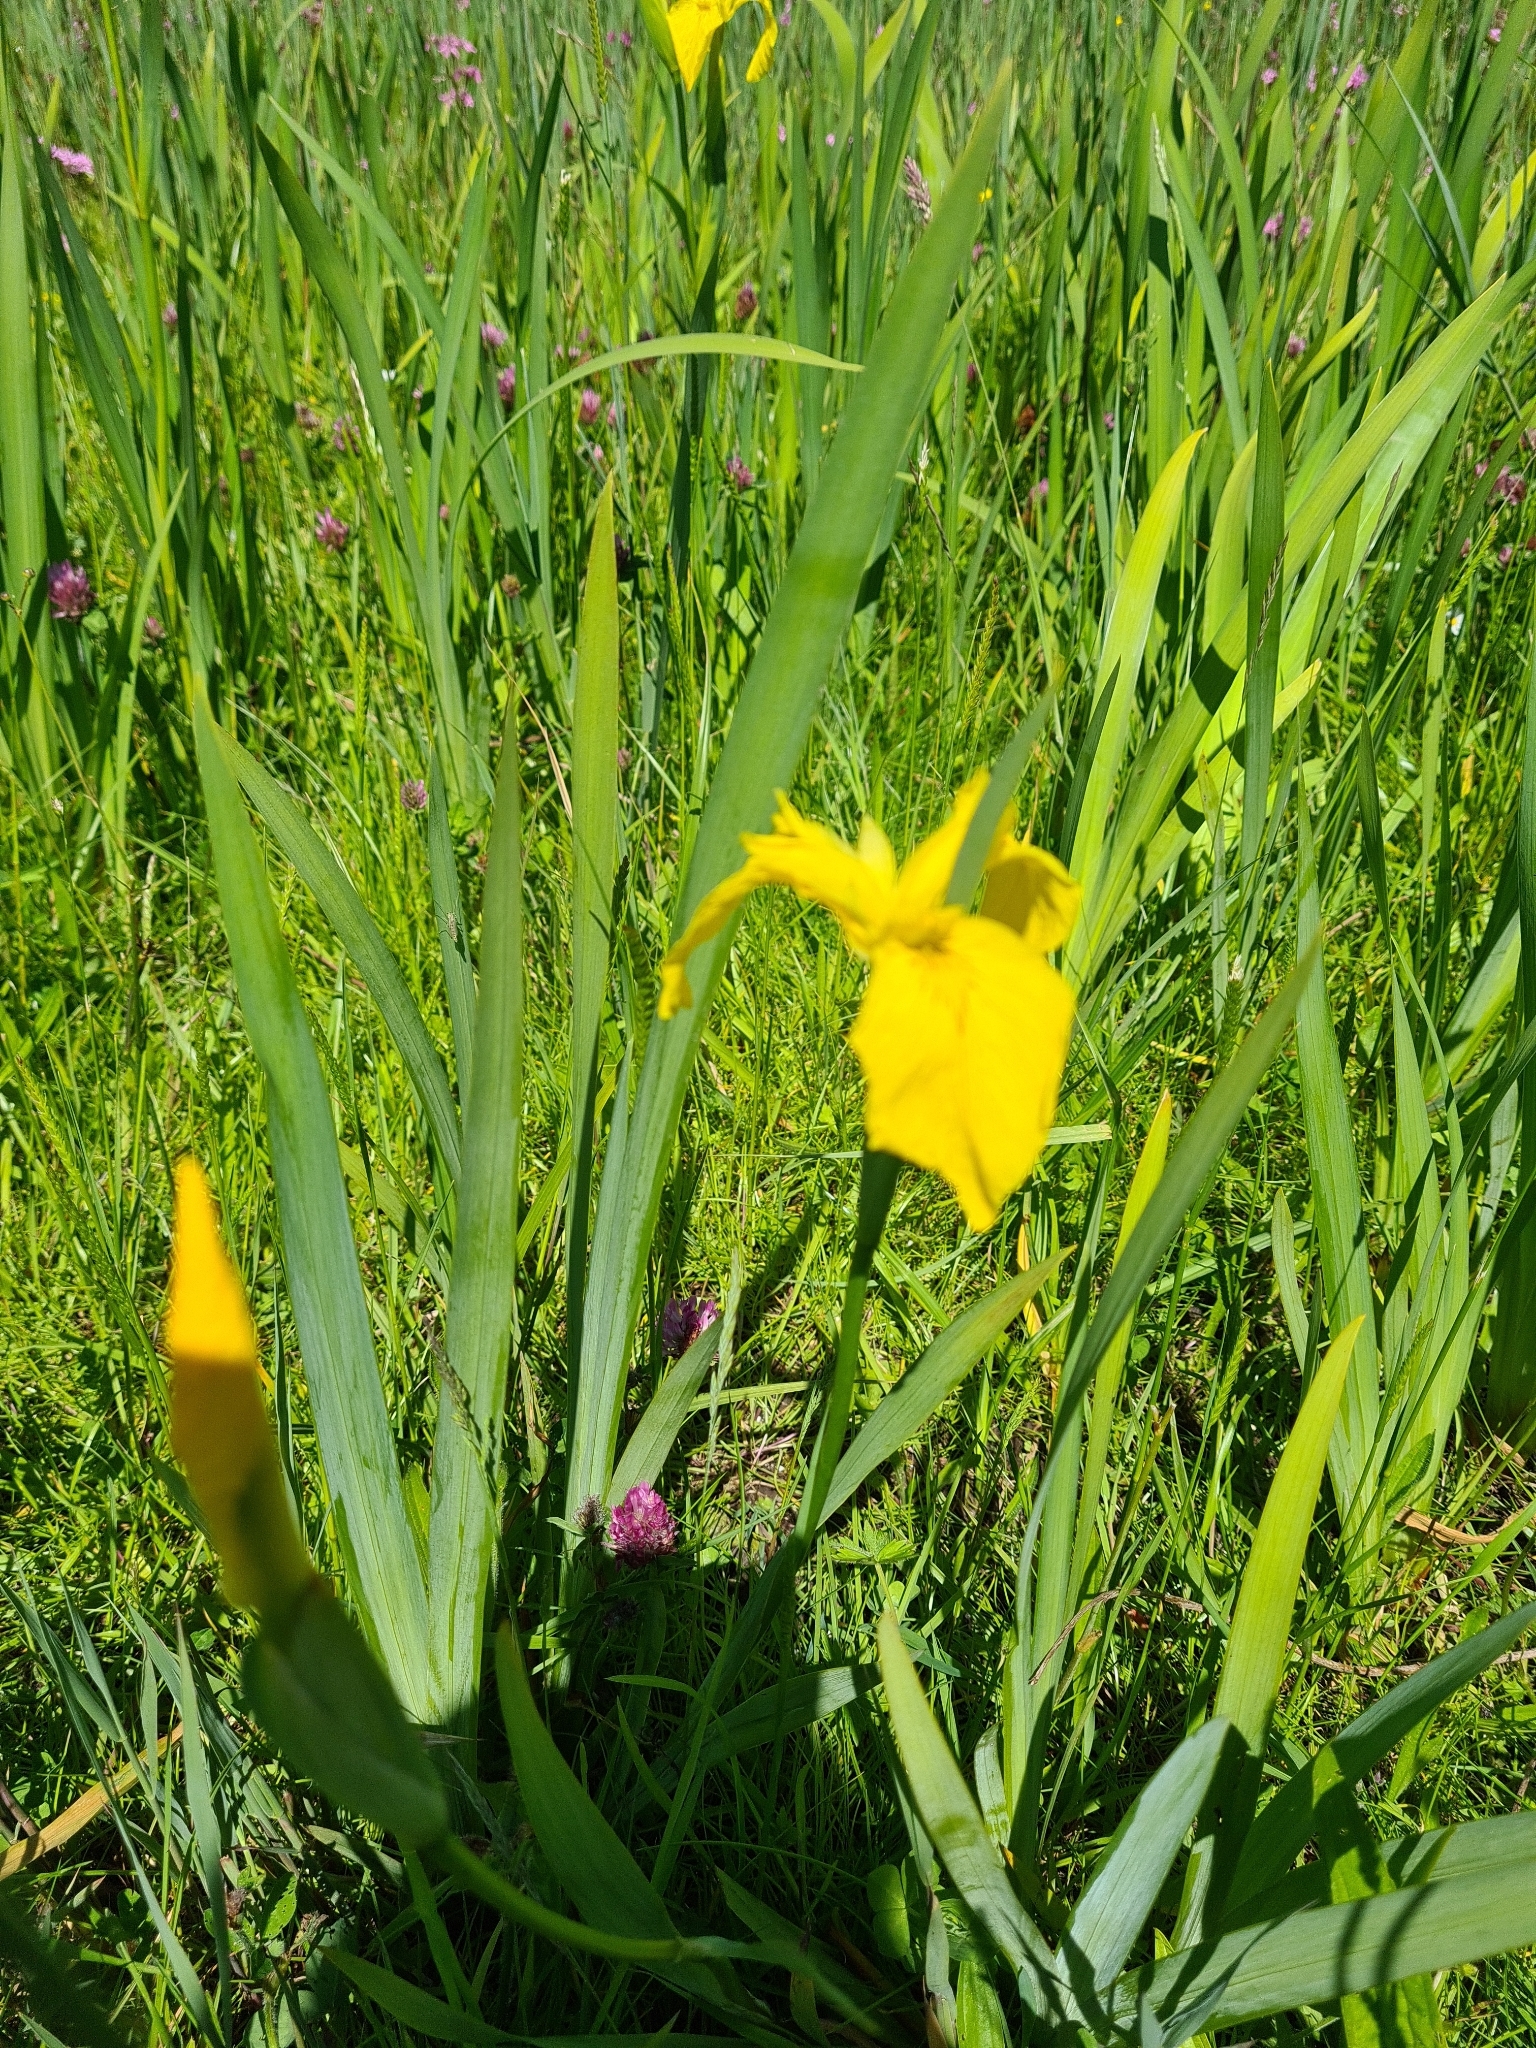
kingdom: Plantae
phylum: Tracheophyta
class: Liliopsida
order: Asparagales
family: Iridaceae
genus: Iris
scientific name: Iris pseudacorus
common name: Yellow flag
